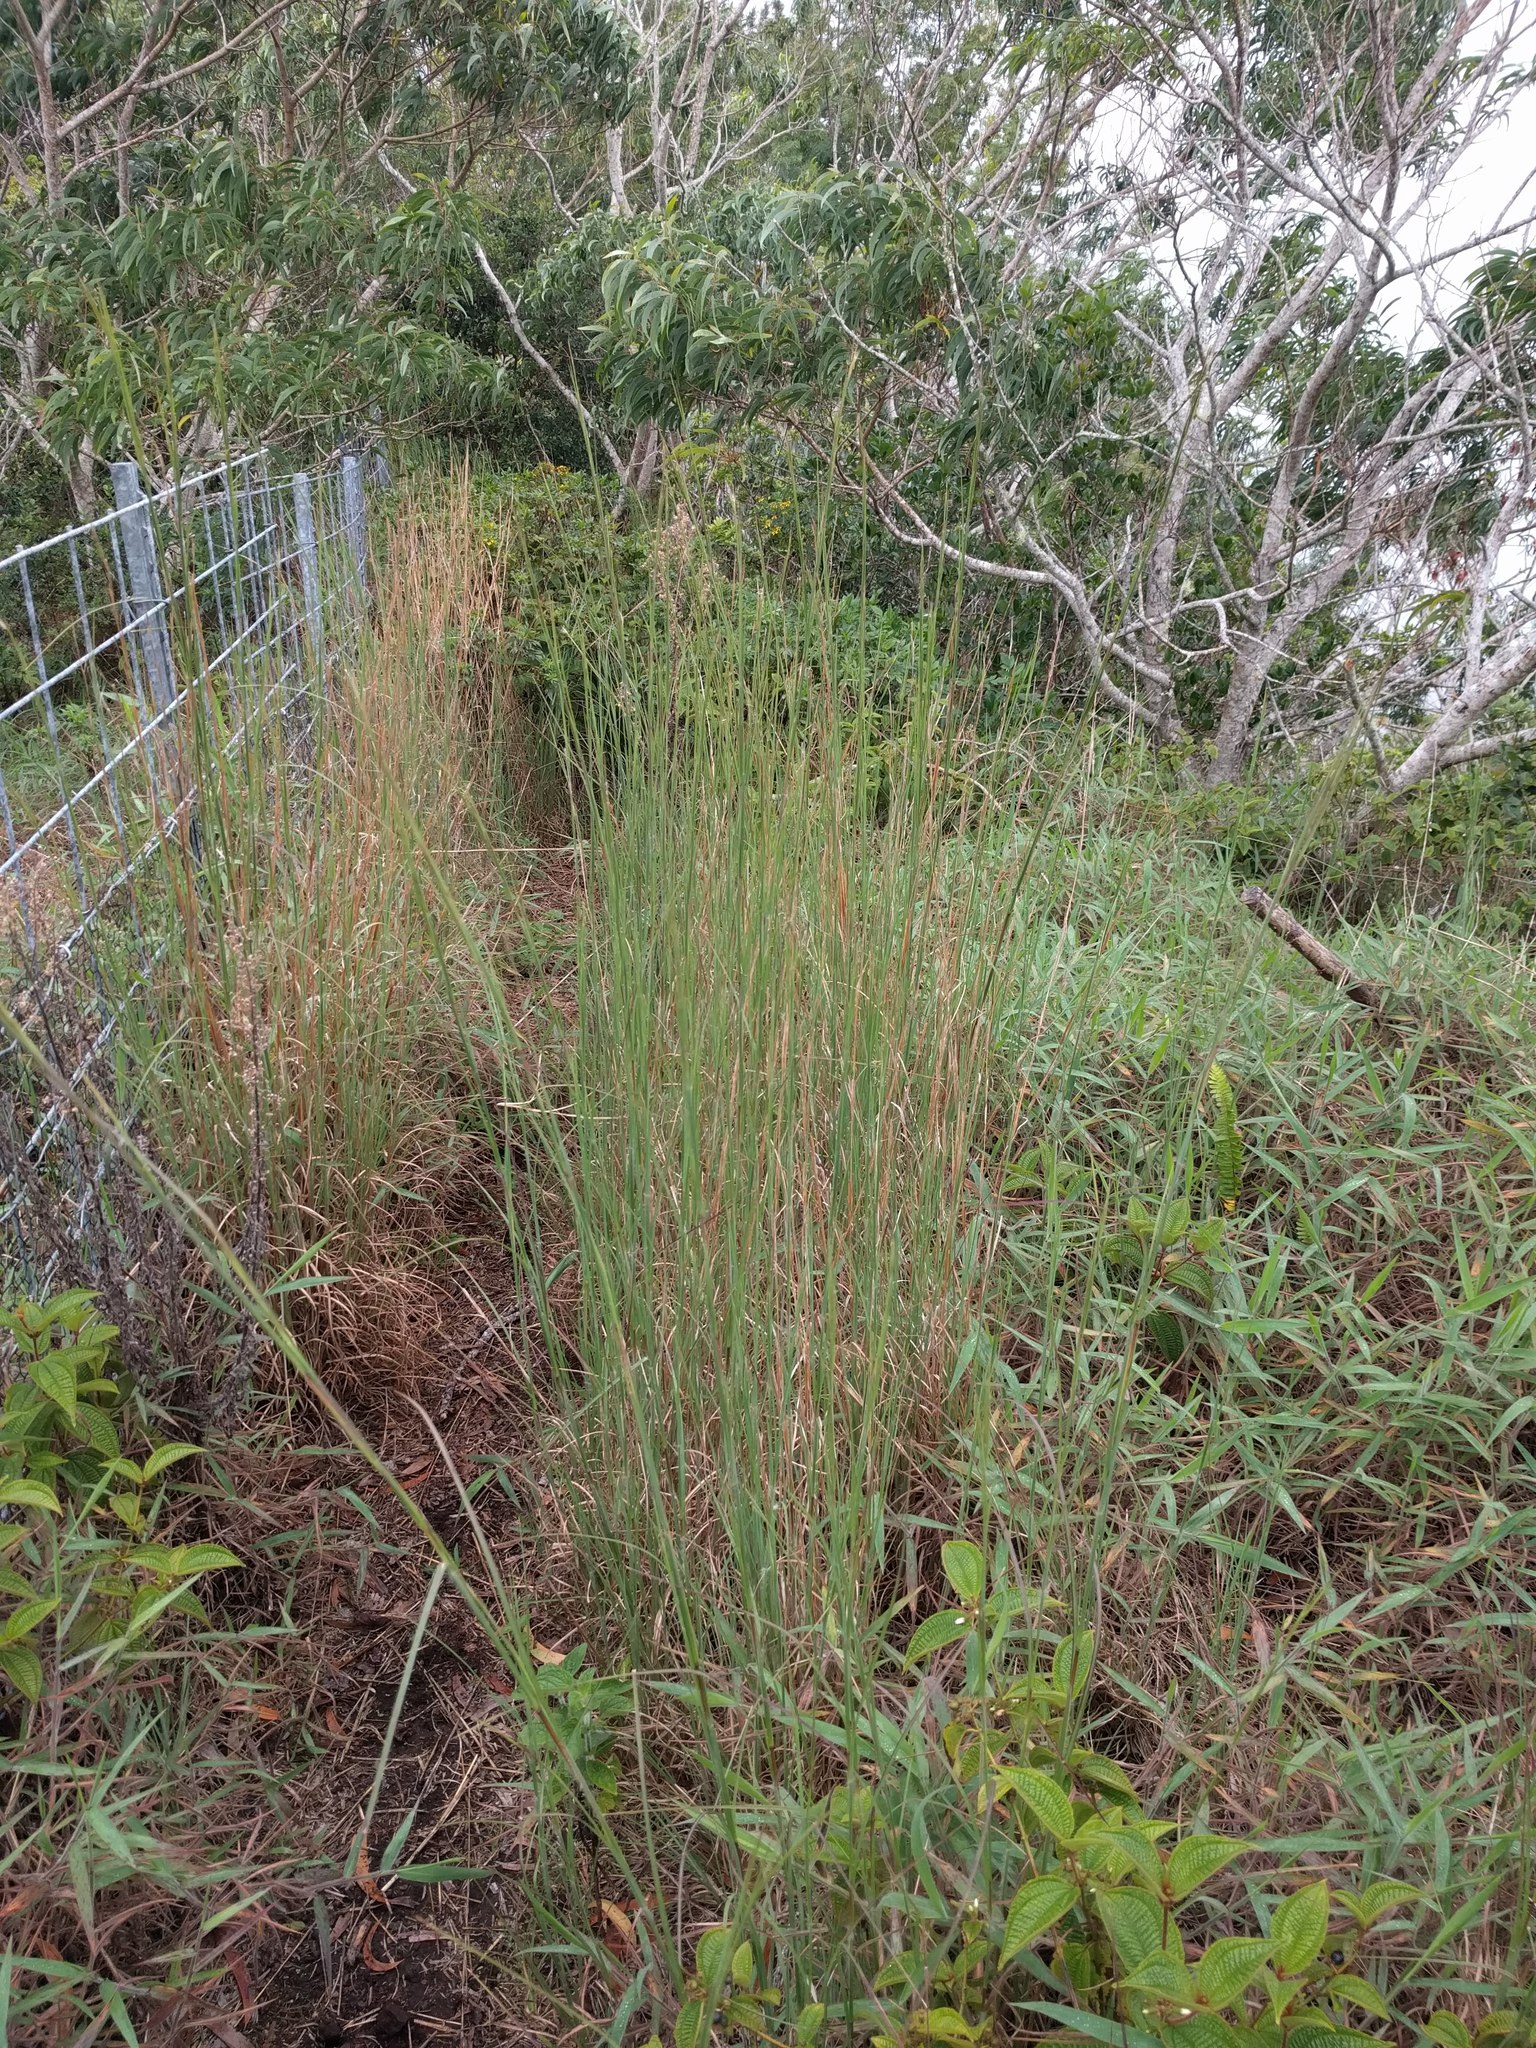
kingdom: Plantae
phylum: Tracheophyta
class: Liliopsida
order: Poales
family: Poaceae
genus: Andropogon
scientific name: Andropogon virginicus
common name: Broomsedge bluestem
